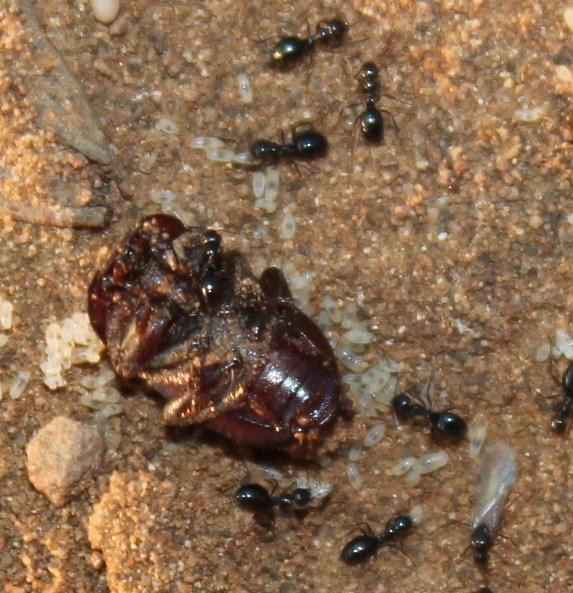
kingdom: Animalia
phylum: Arthropoda
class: Insecta
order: Hymenoptera
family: Formicidae
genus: Lepisiota
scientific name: Lepisiota capensis
